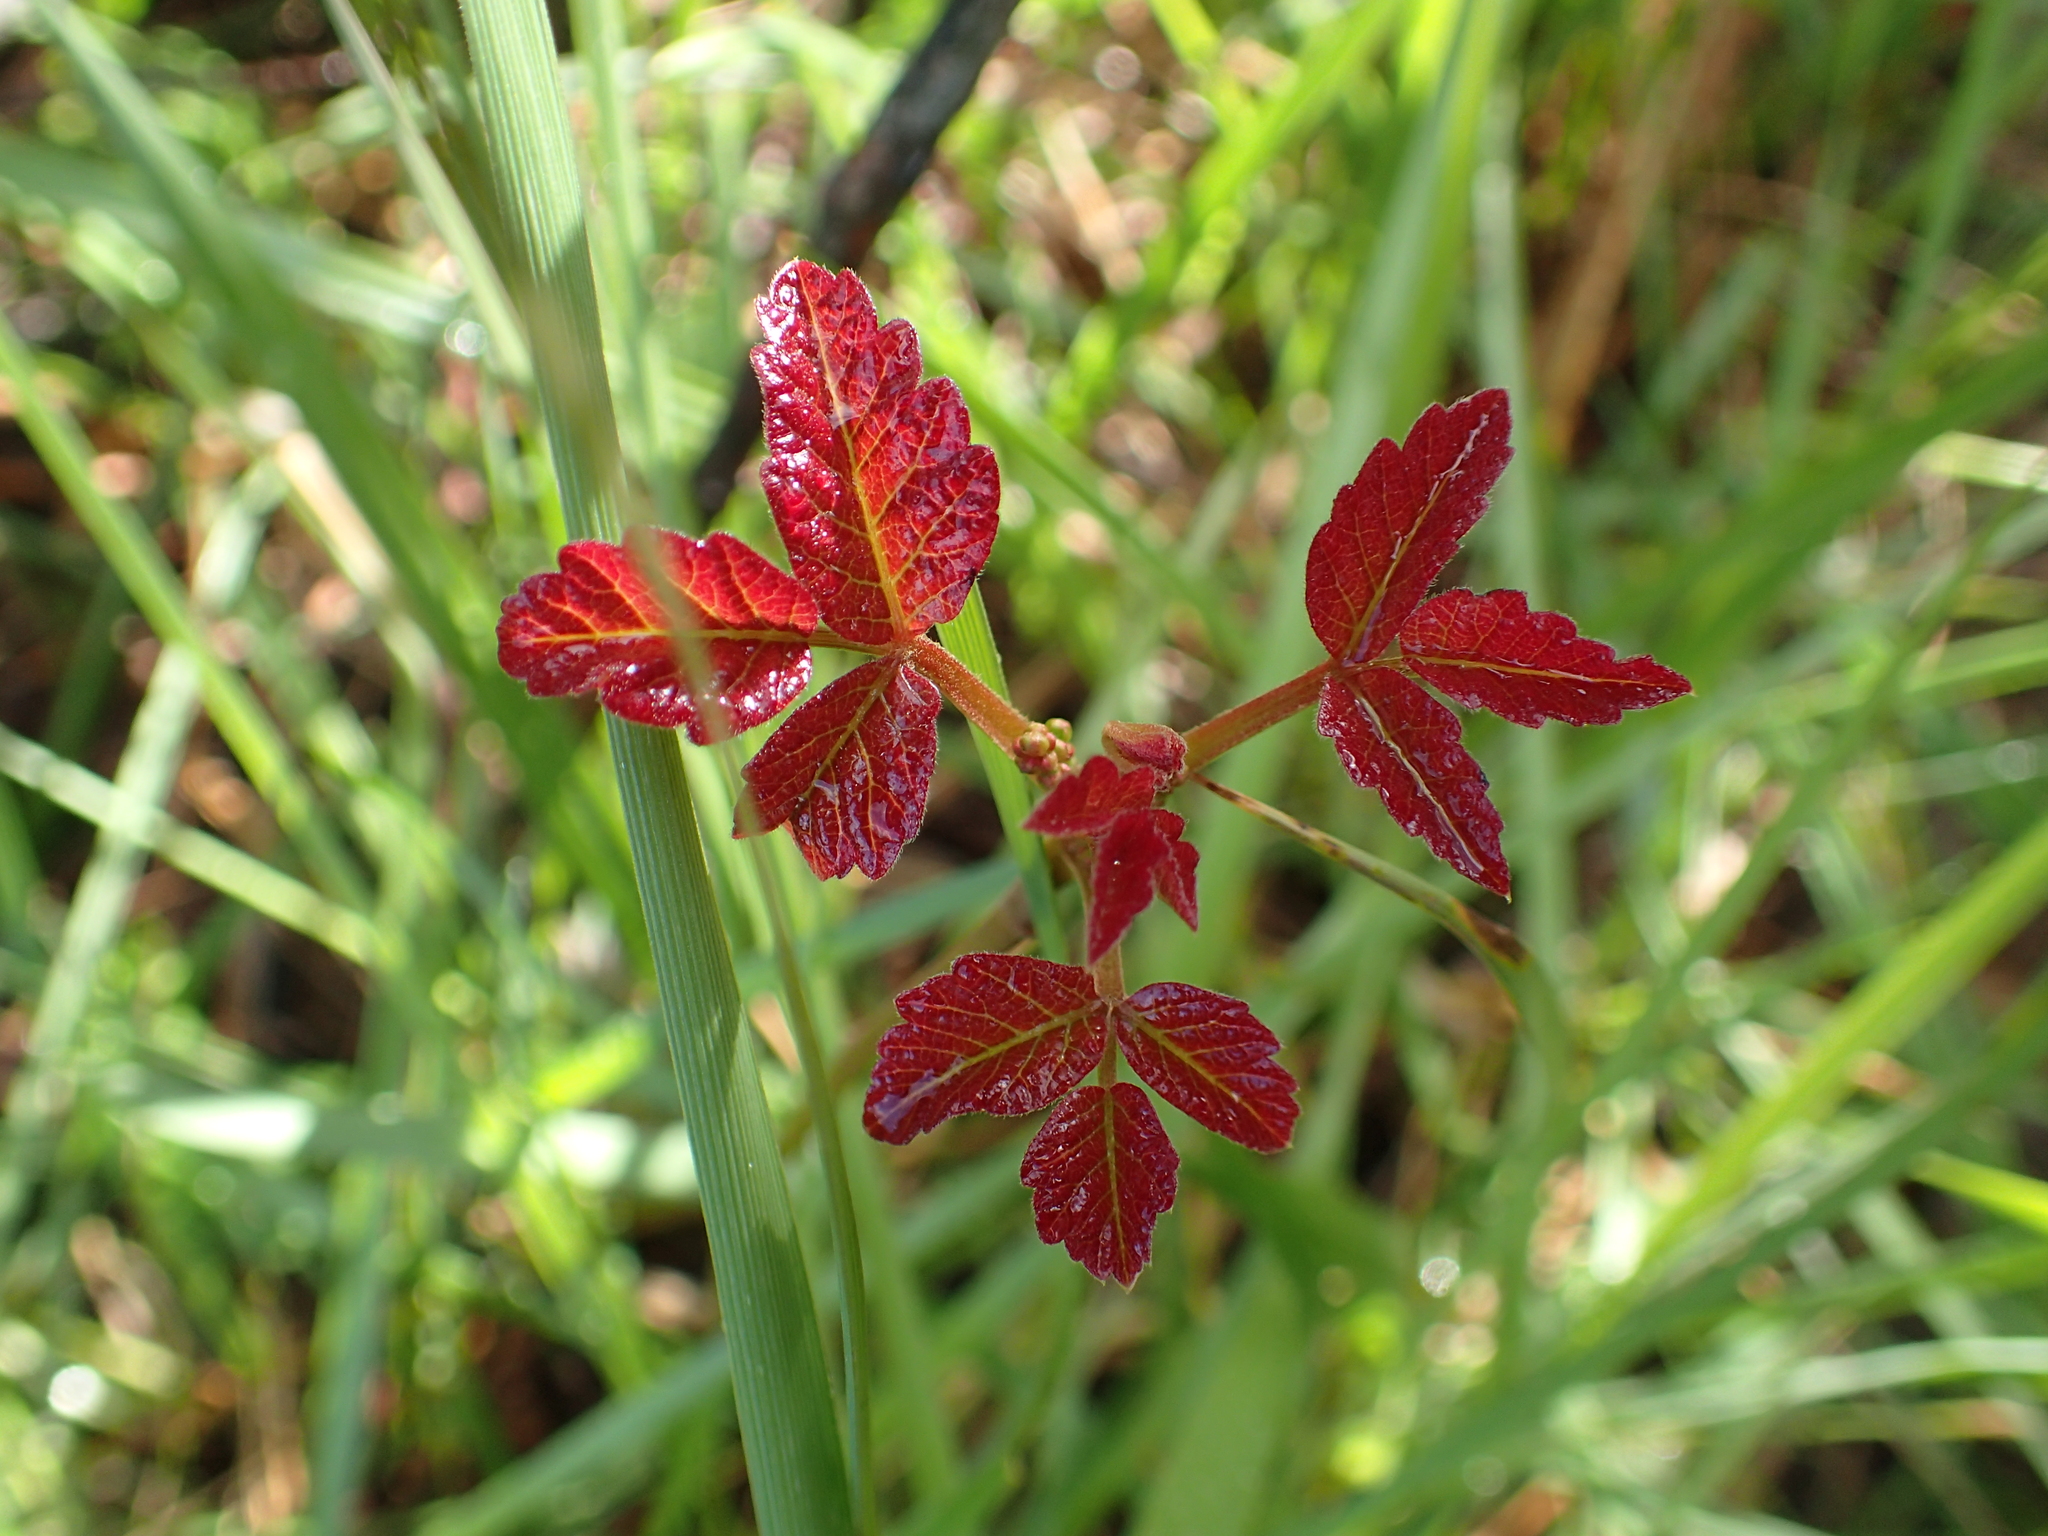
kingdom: Plantae
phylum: Tracheophyta
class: Magnoliopsida
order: Sapindales
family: Anacardiaceae
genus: Toxicodendron
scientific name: Toxicodendron diversilobum
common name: Pacific poison-oak
